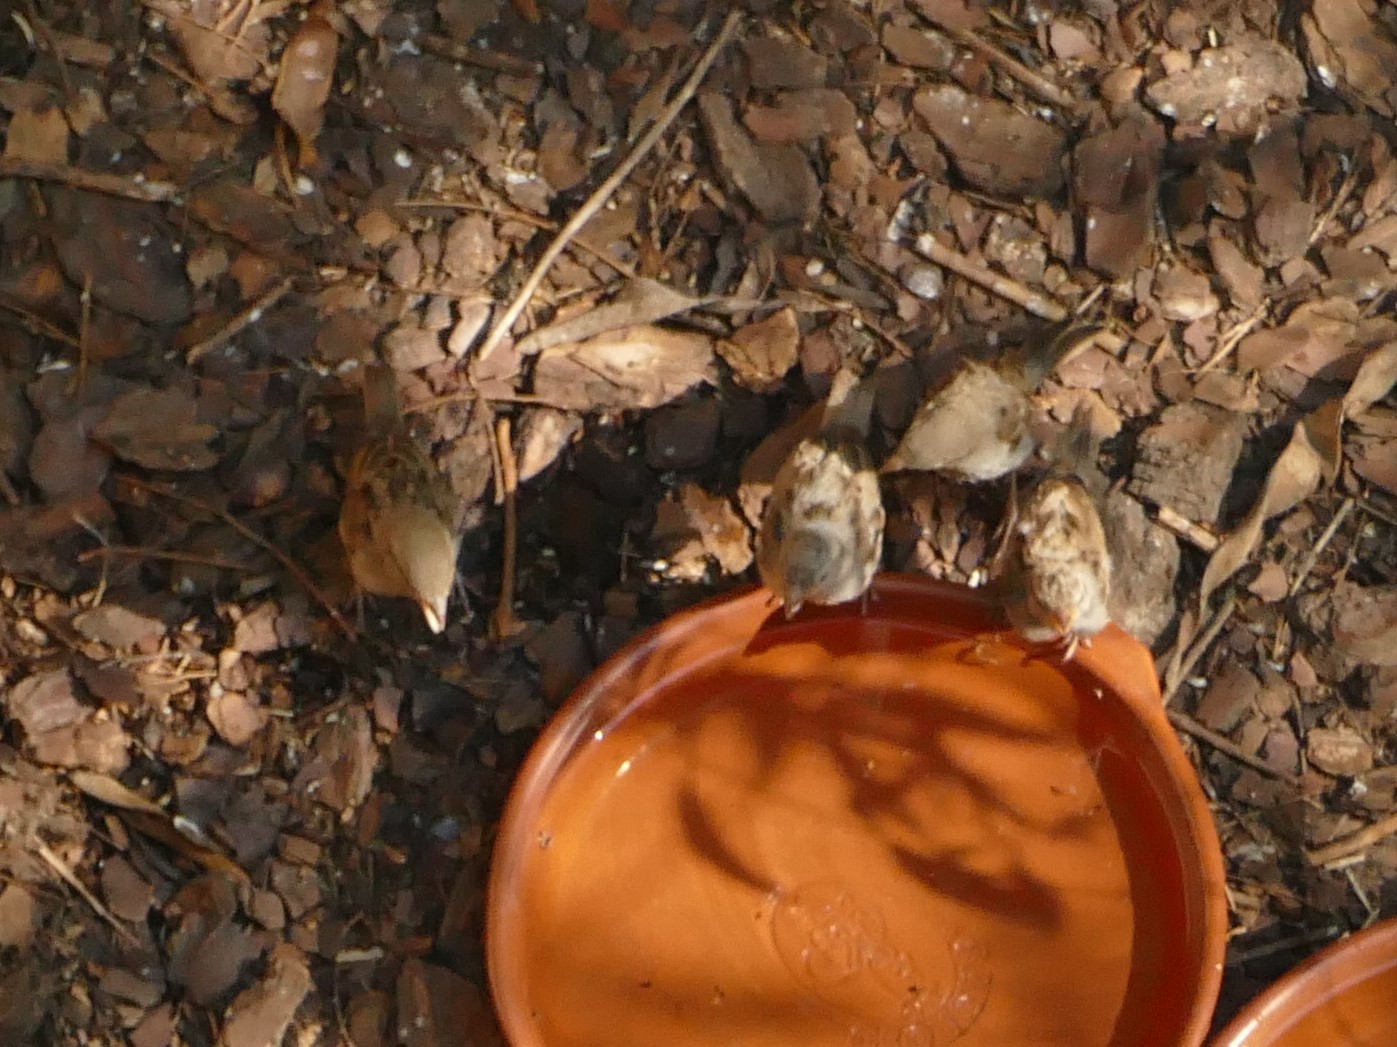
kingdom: Animalia
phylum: Chordata
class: Aves
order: Passeriformes
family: Passeridae
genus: Passer
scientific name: Passer domesticus
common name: House sparrow
